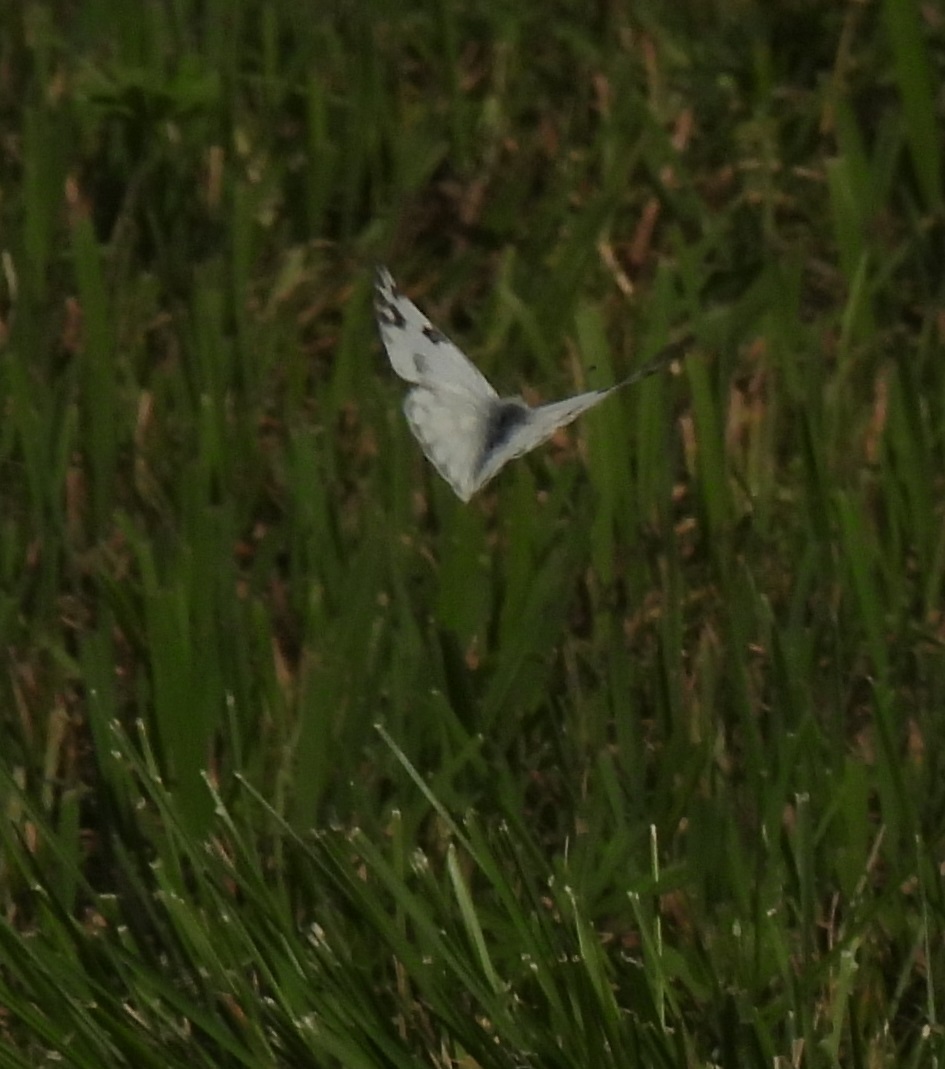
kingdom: Animalia
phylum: Arthropoda
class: Insecta
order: Lepidoptera
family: Pieridae
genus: Pontia
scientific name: Pontia protodice
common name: Checkered white
